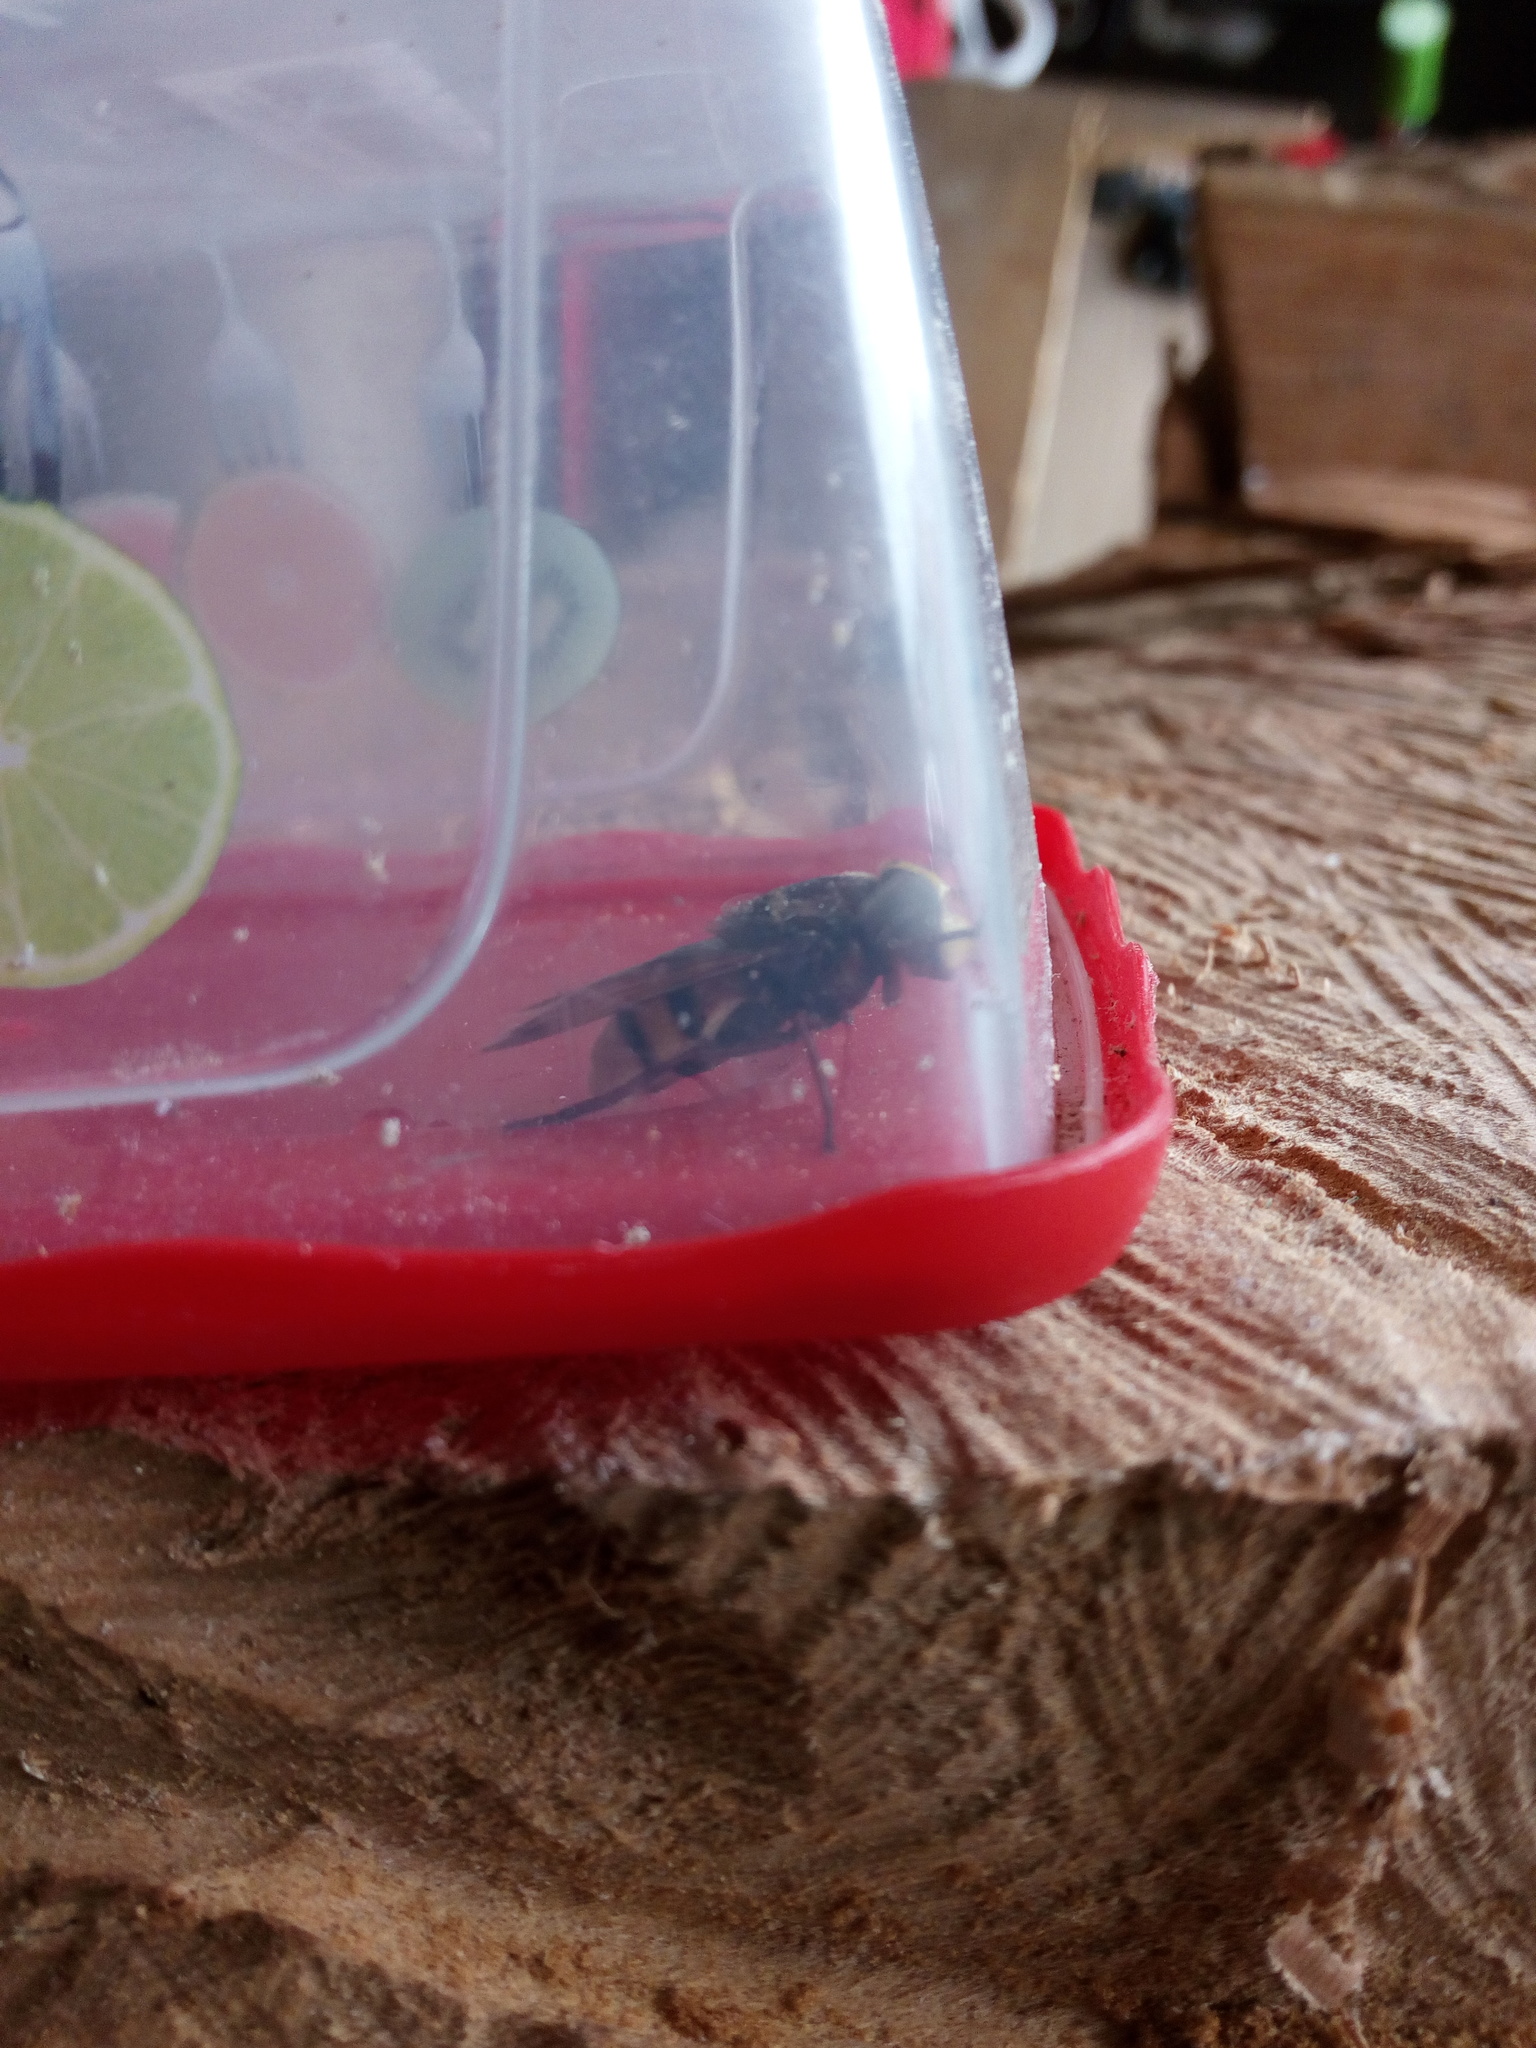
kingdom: Animalia
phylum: Arthropoda
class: Insecta
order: Diptera
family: Syrphidae
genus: Volucella
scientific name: Volucella zonaria
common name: Hornet hoverfly
